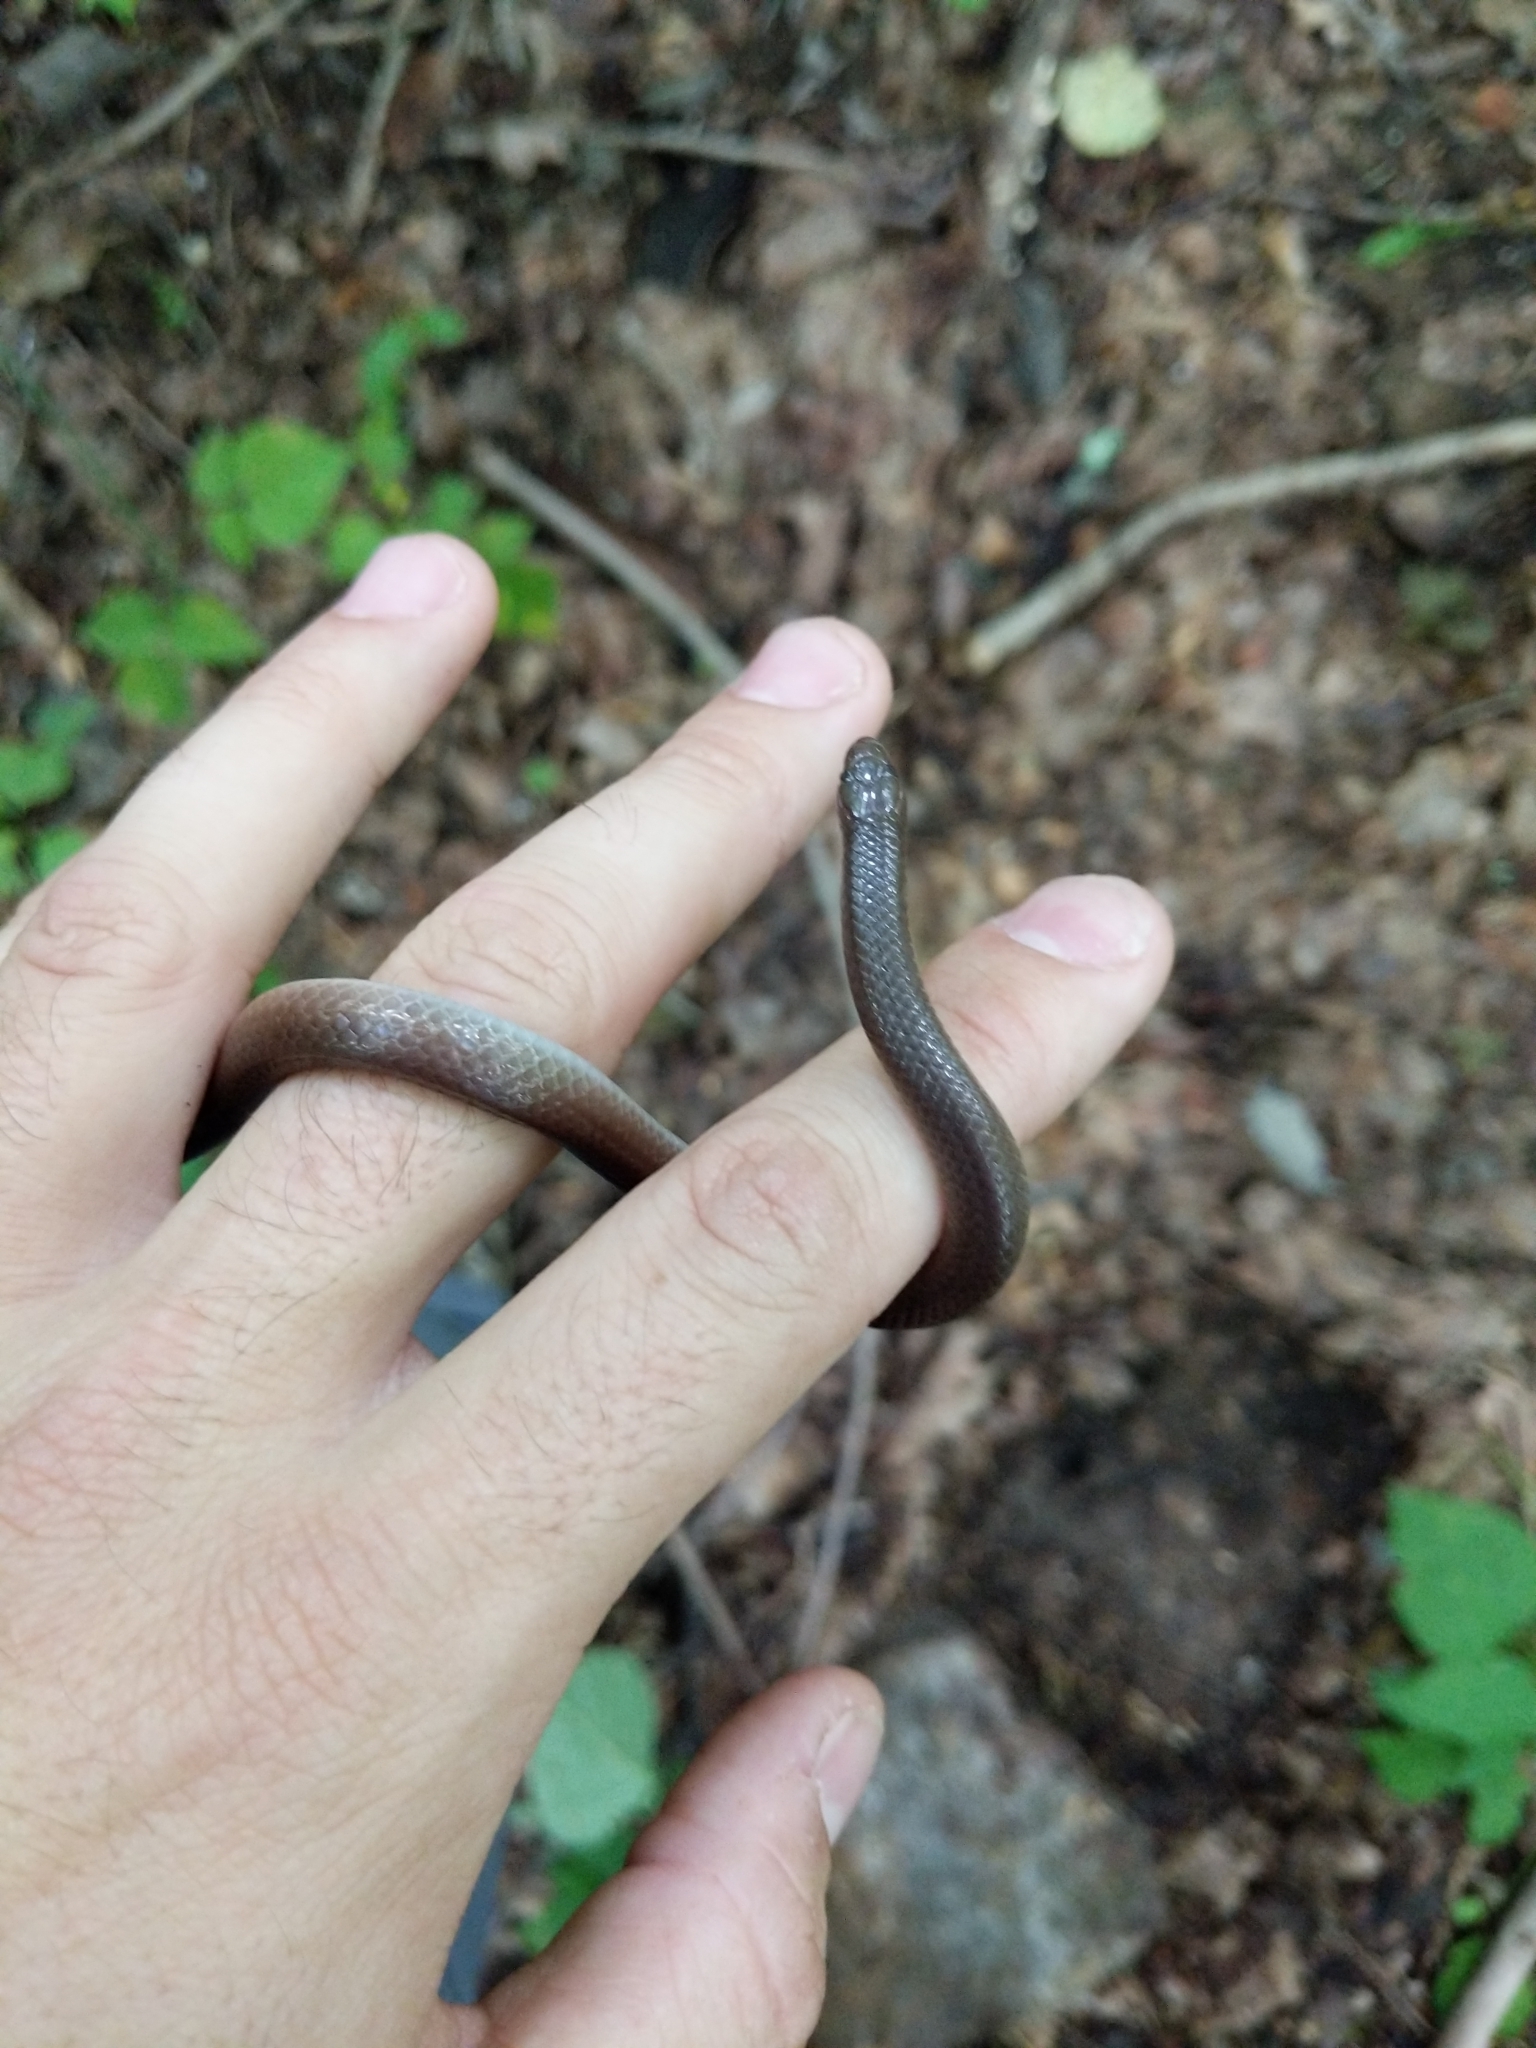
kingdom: Animalia
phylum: Chordata
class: Squamata
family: Colubridae
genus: Carphophis
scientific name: Carphophis amoenus
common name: Eastern worm snake
